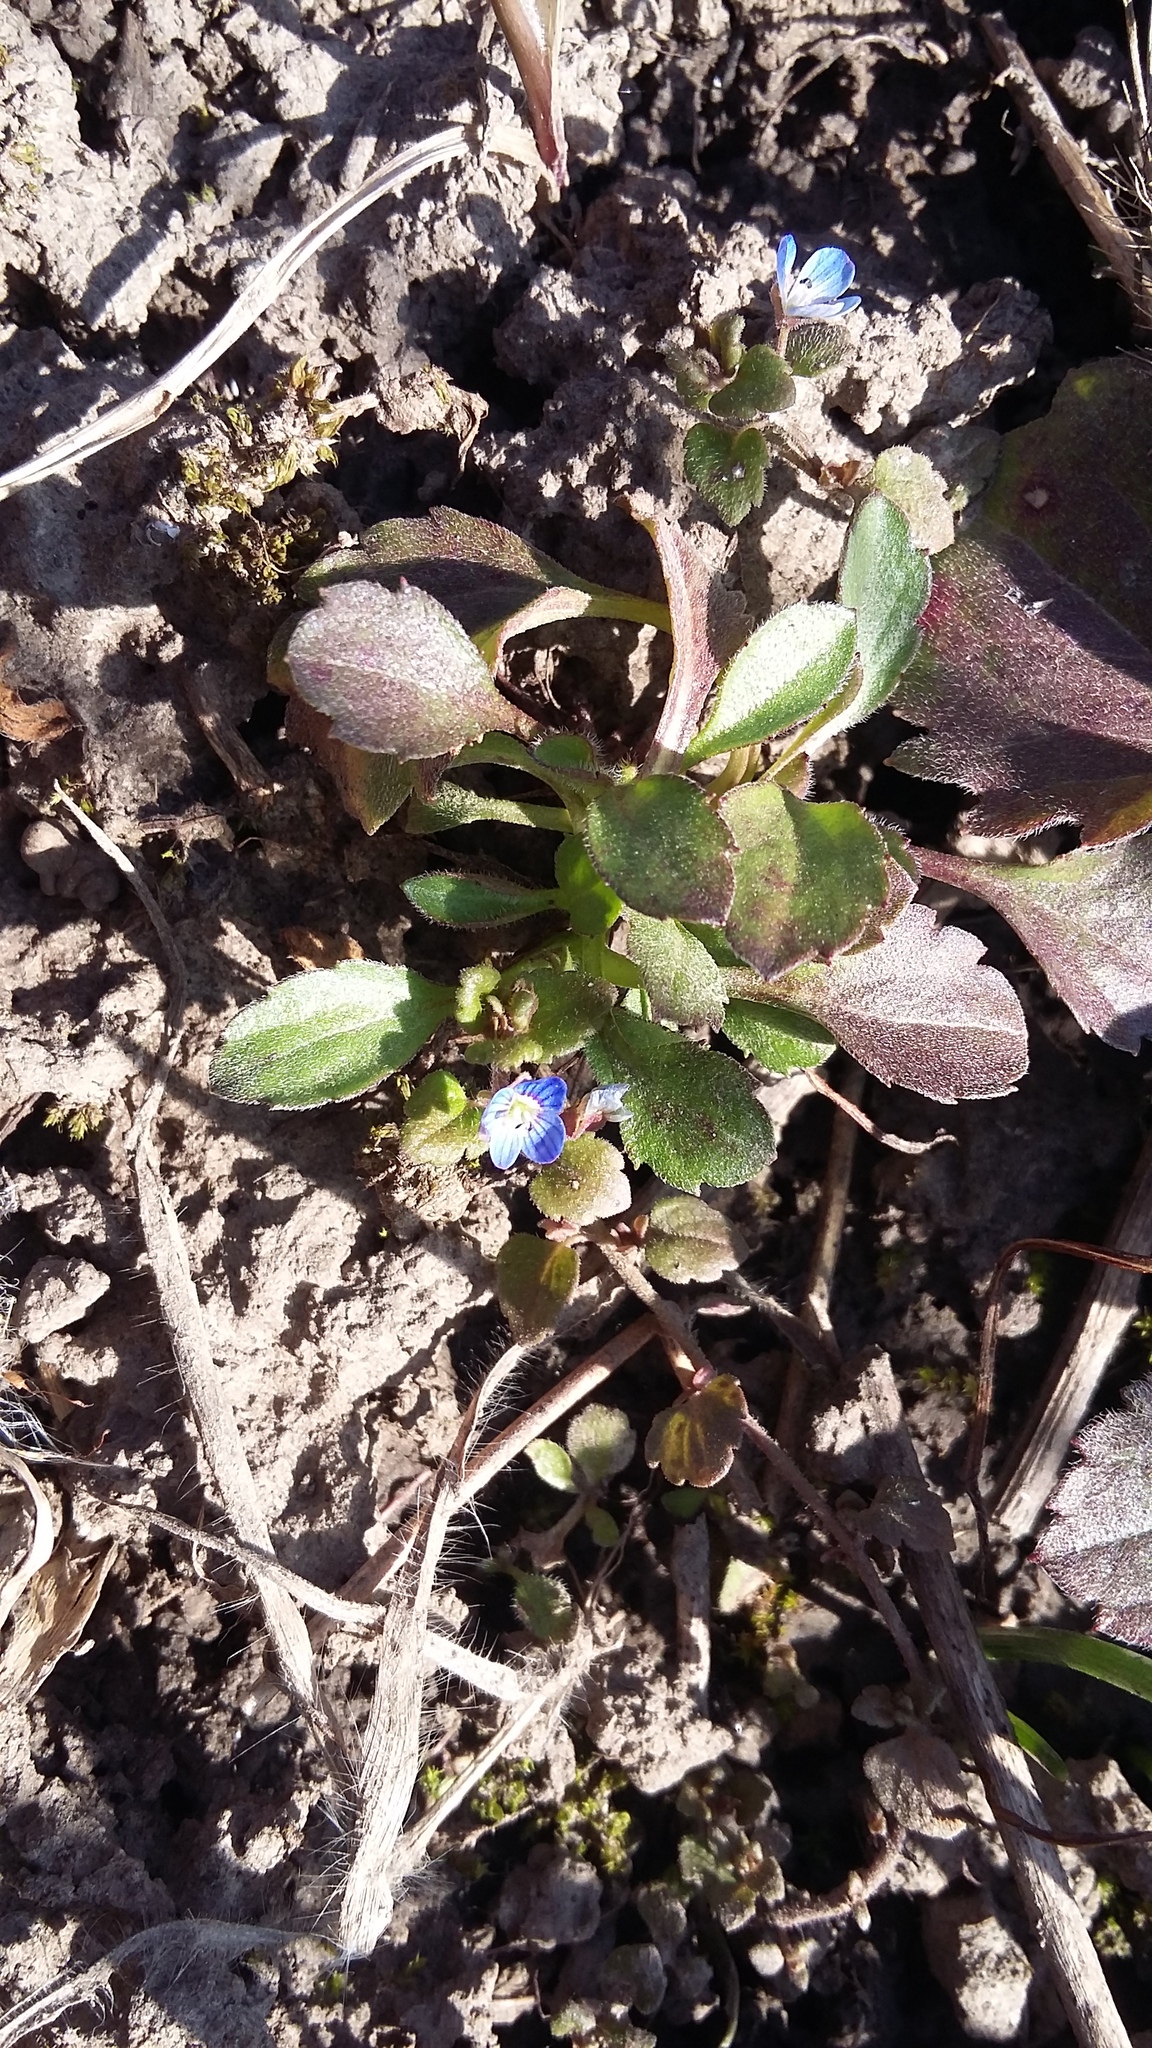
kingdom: Plantae
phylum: Tracheophyta
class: Magnoliopsida
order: Lamiales
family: Plantaginaceae
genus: Veronica
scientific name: Veronica polita
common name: Grey field-speedwell
